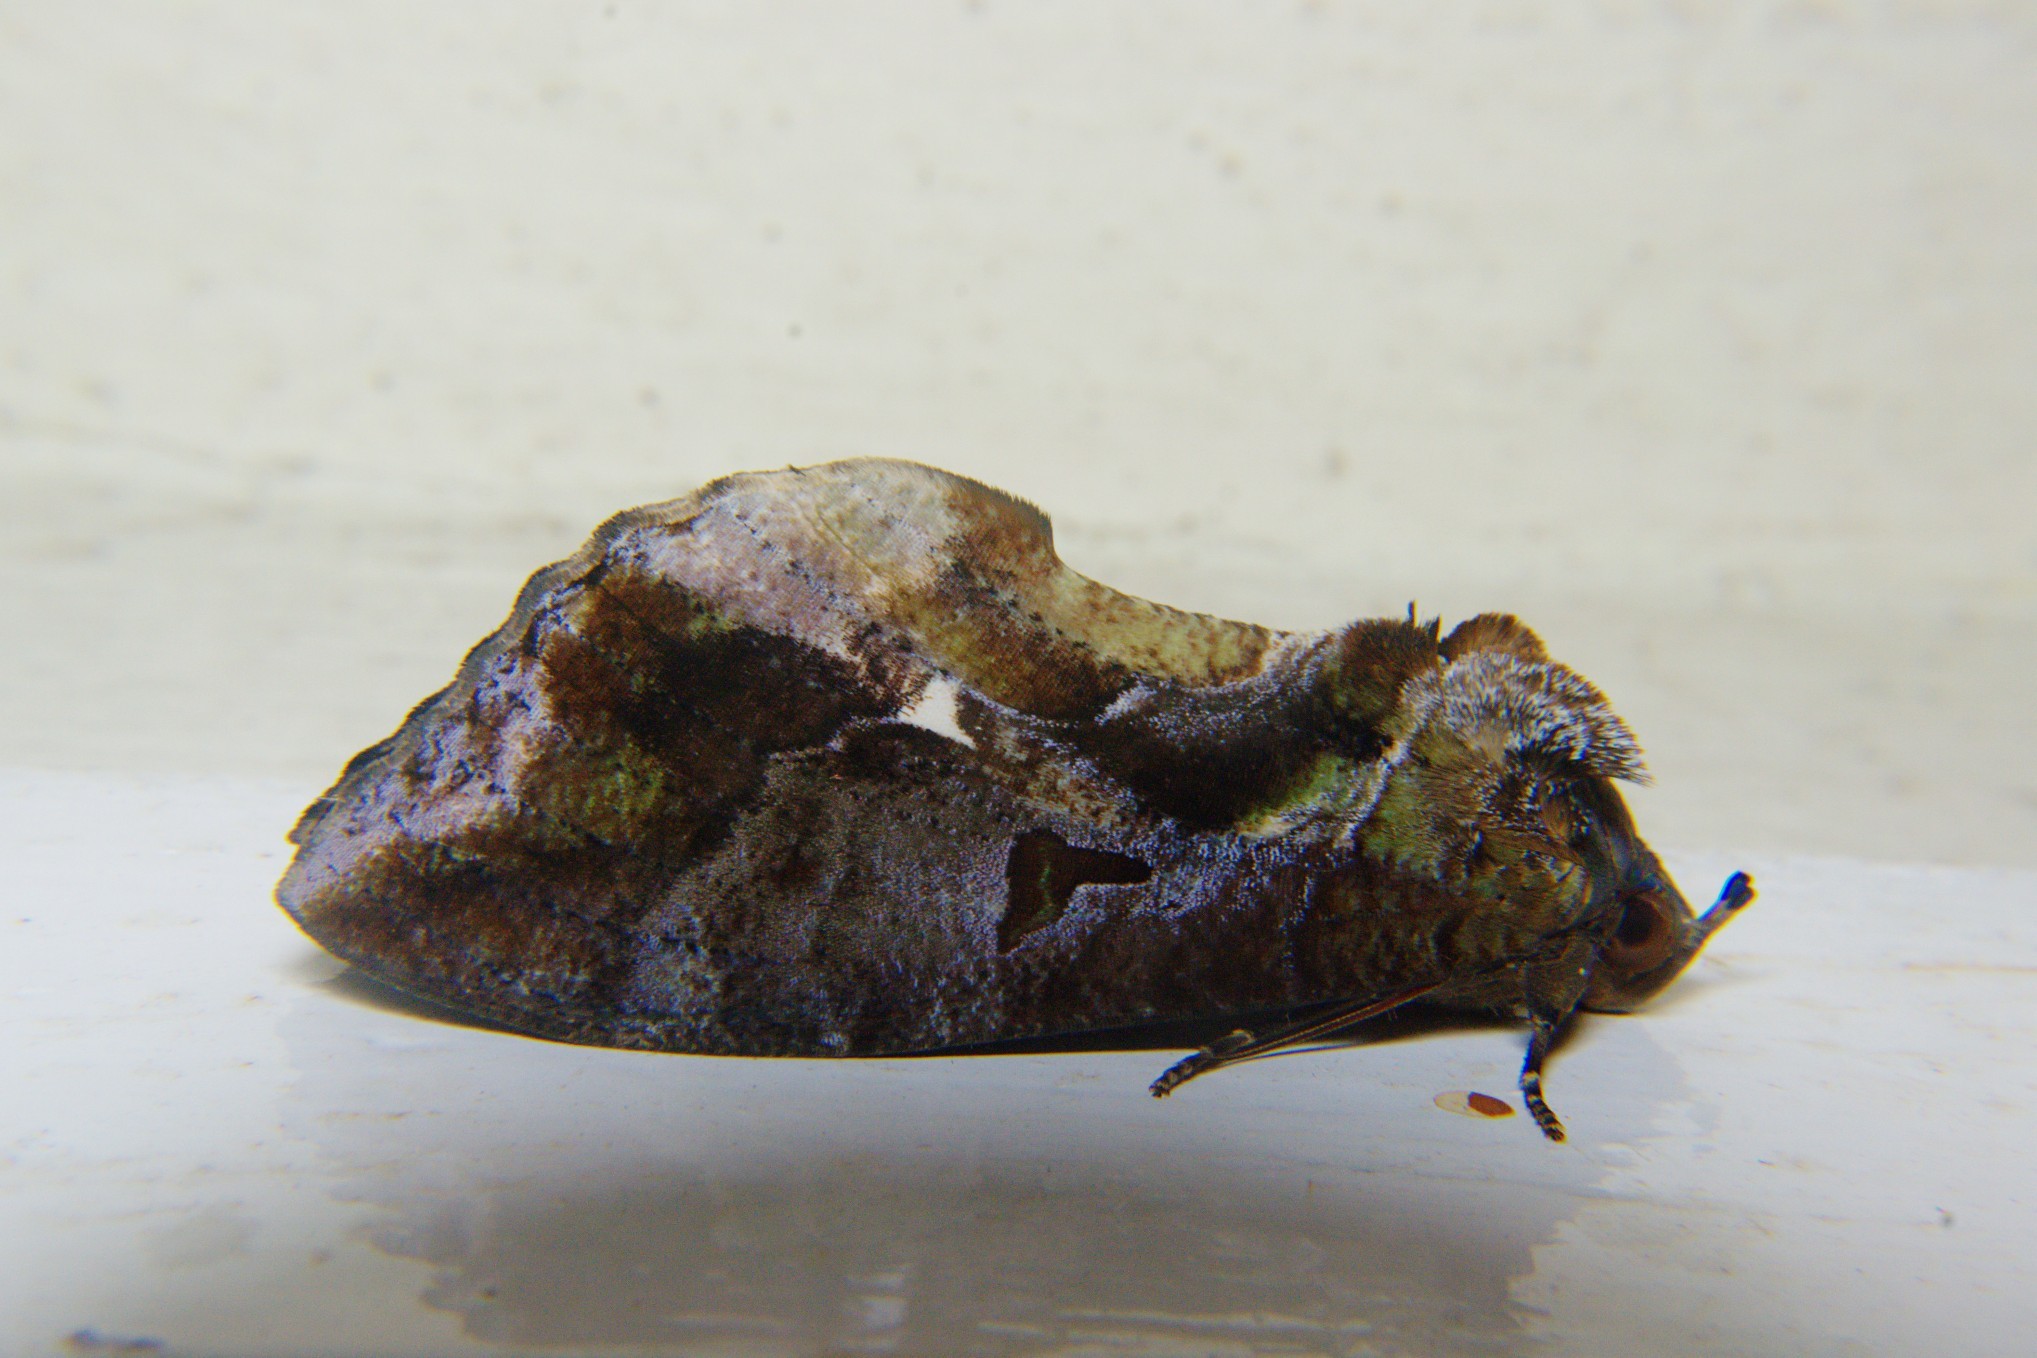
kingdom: Animalia
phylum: Arthropoda
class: Insecta
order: Lepidoptera
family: Erebidae
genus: Eudocima
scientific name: Eudocima phalonia
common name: Wasp
